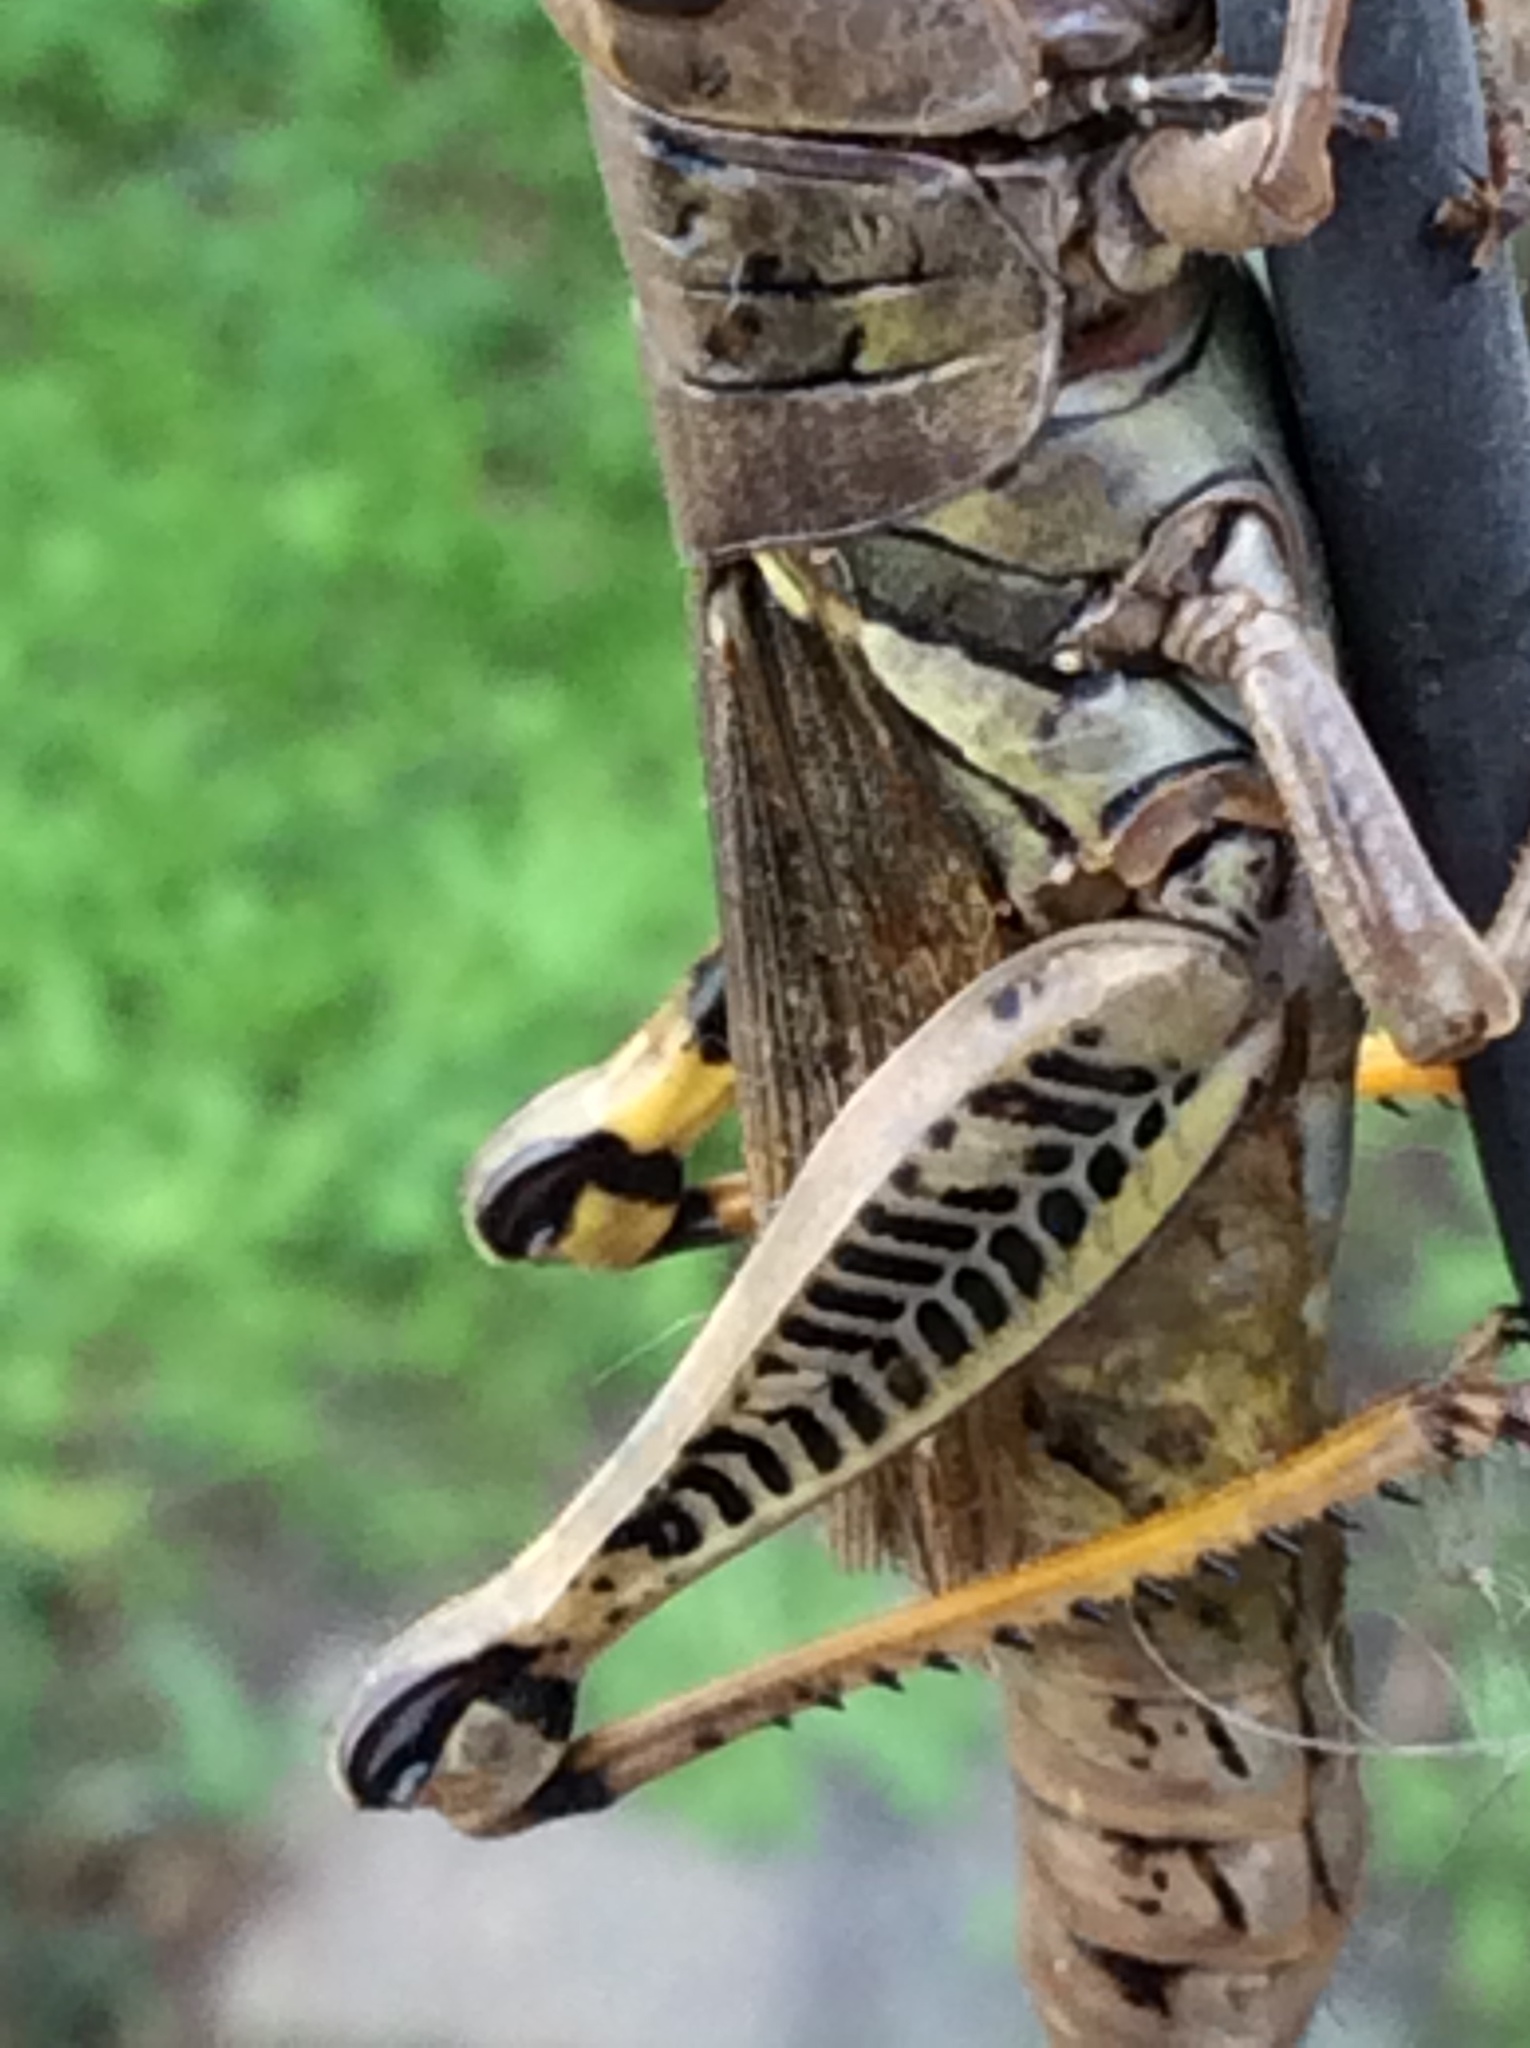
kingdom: Animalia
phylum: Arthropoda
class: Insecta
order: Orthoptera
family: Acrididae
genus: Melanoplus
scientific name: Melanoplus differentialis
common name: Differential grasshopper
